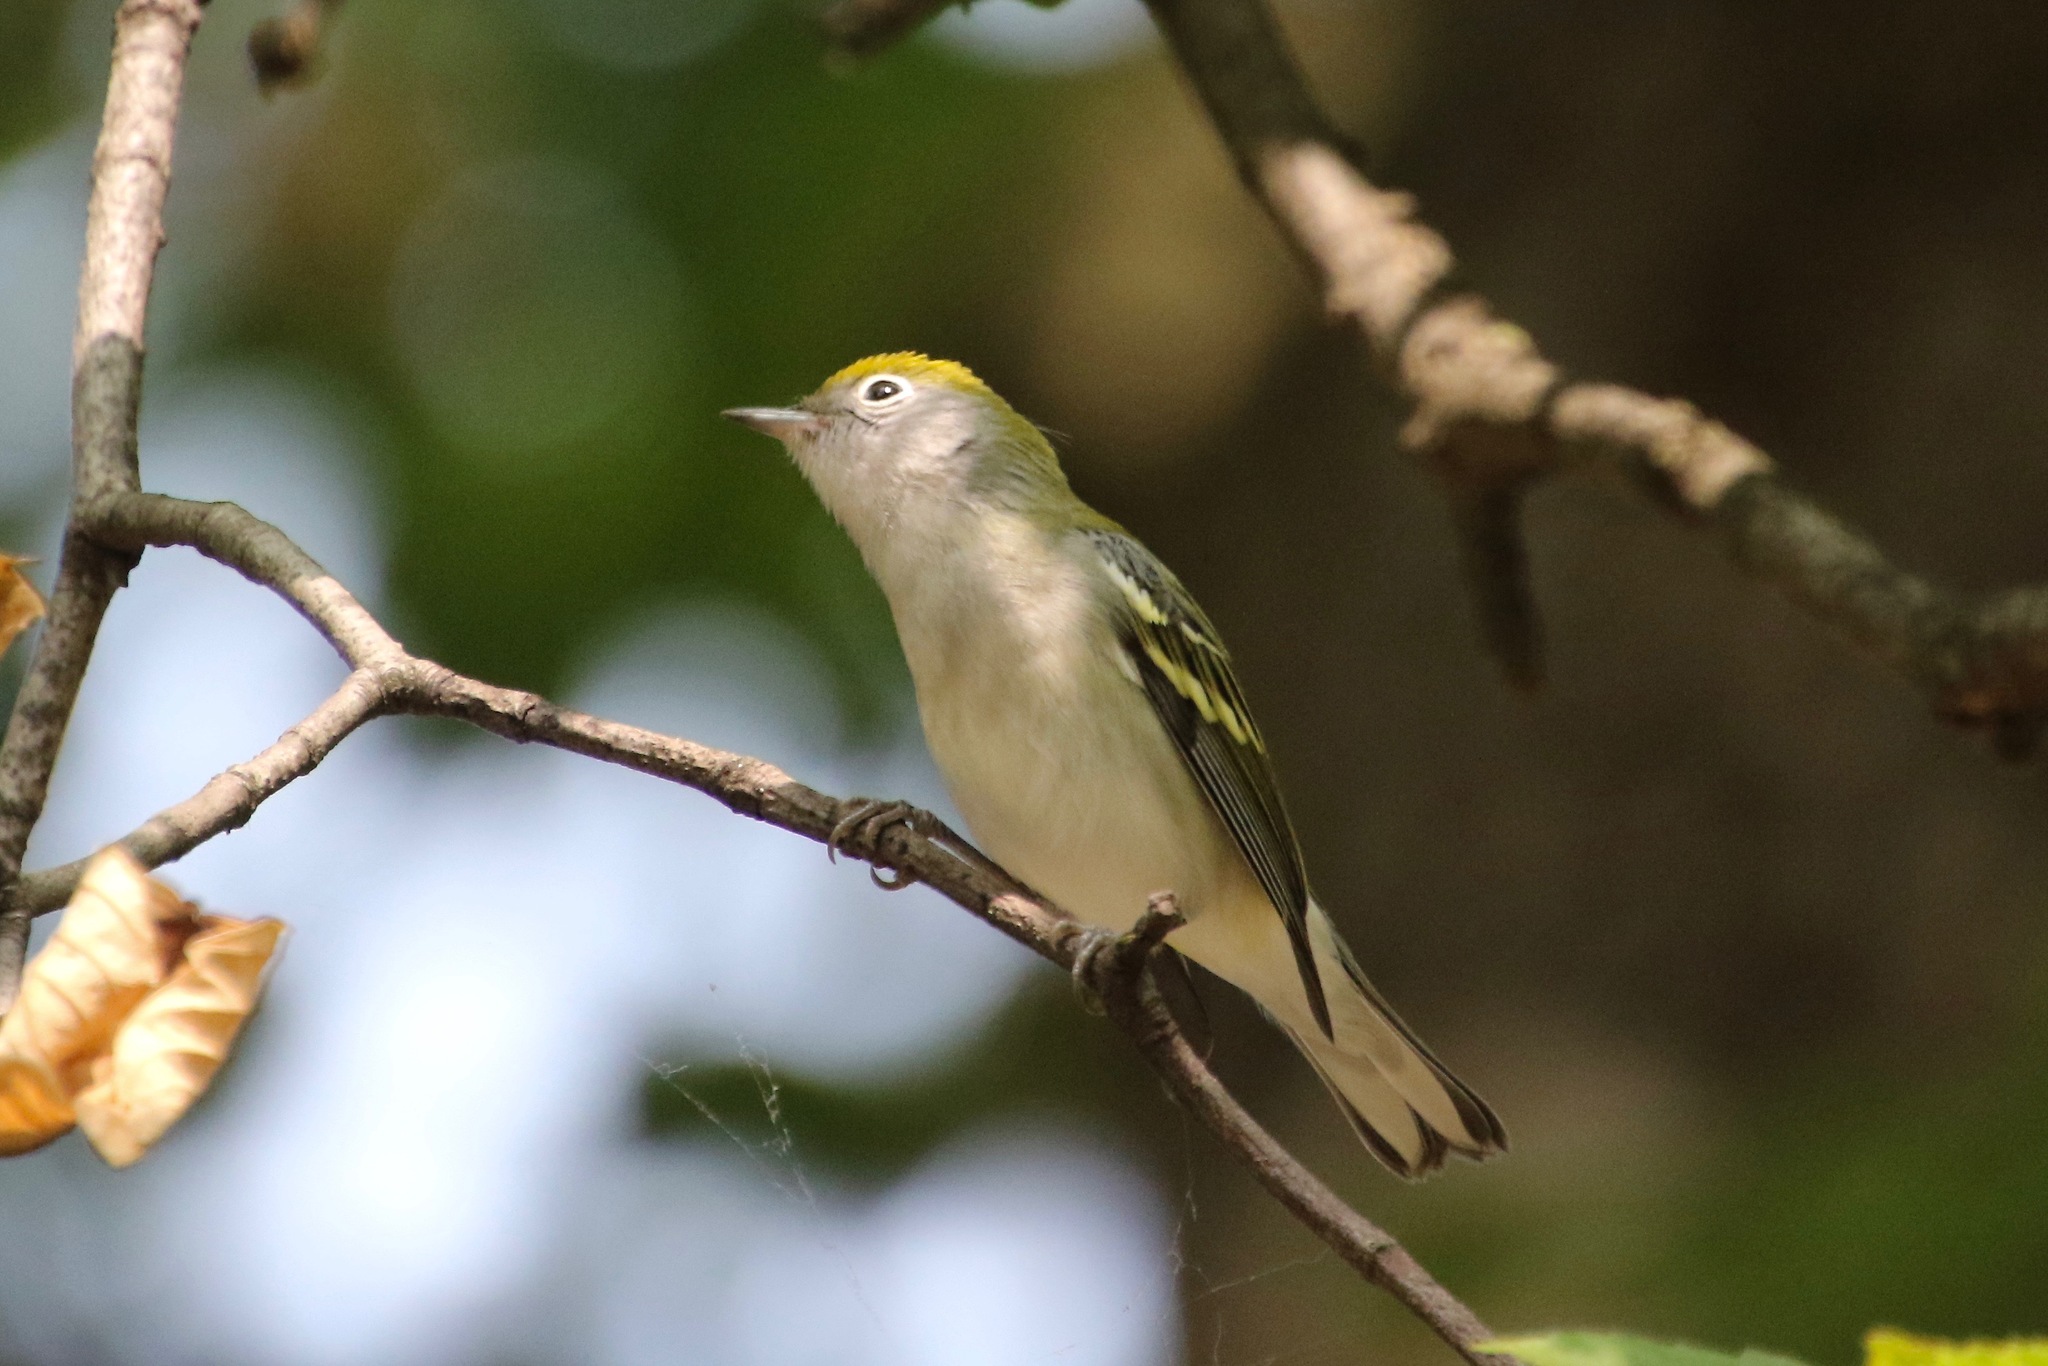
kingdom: Animalia
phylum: Chordata
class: Aves
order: Passeriformes
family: Parulidae
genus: Setophaga
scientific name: Setophaga pensylvanica
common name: Chestnut-sided warbler
